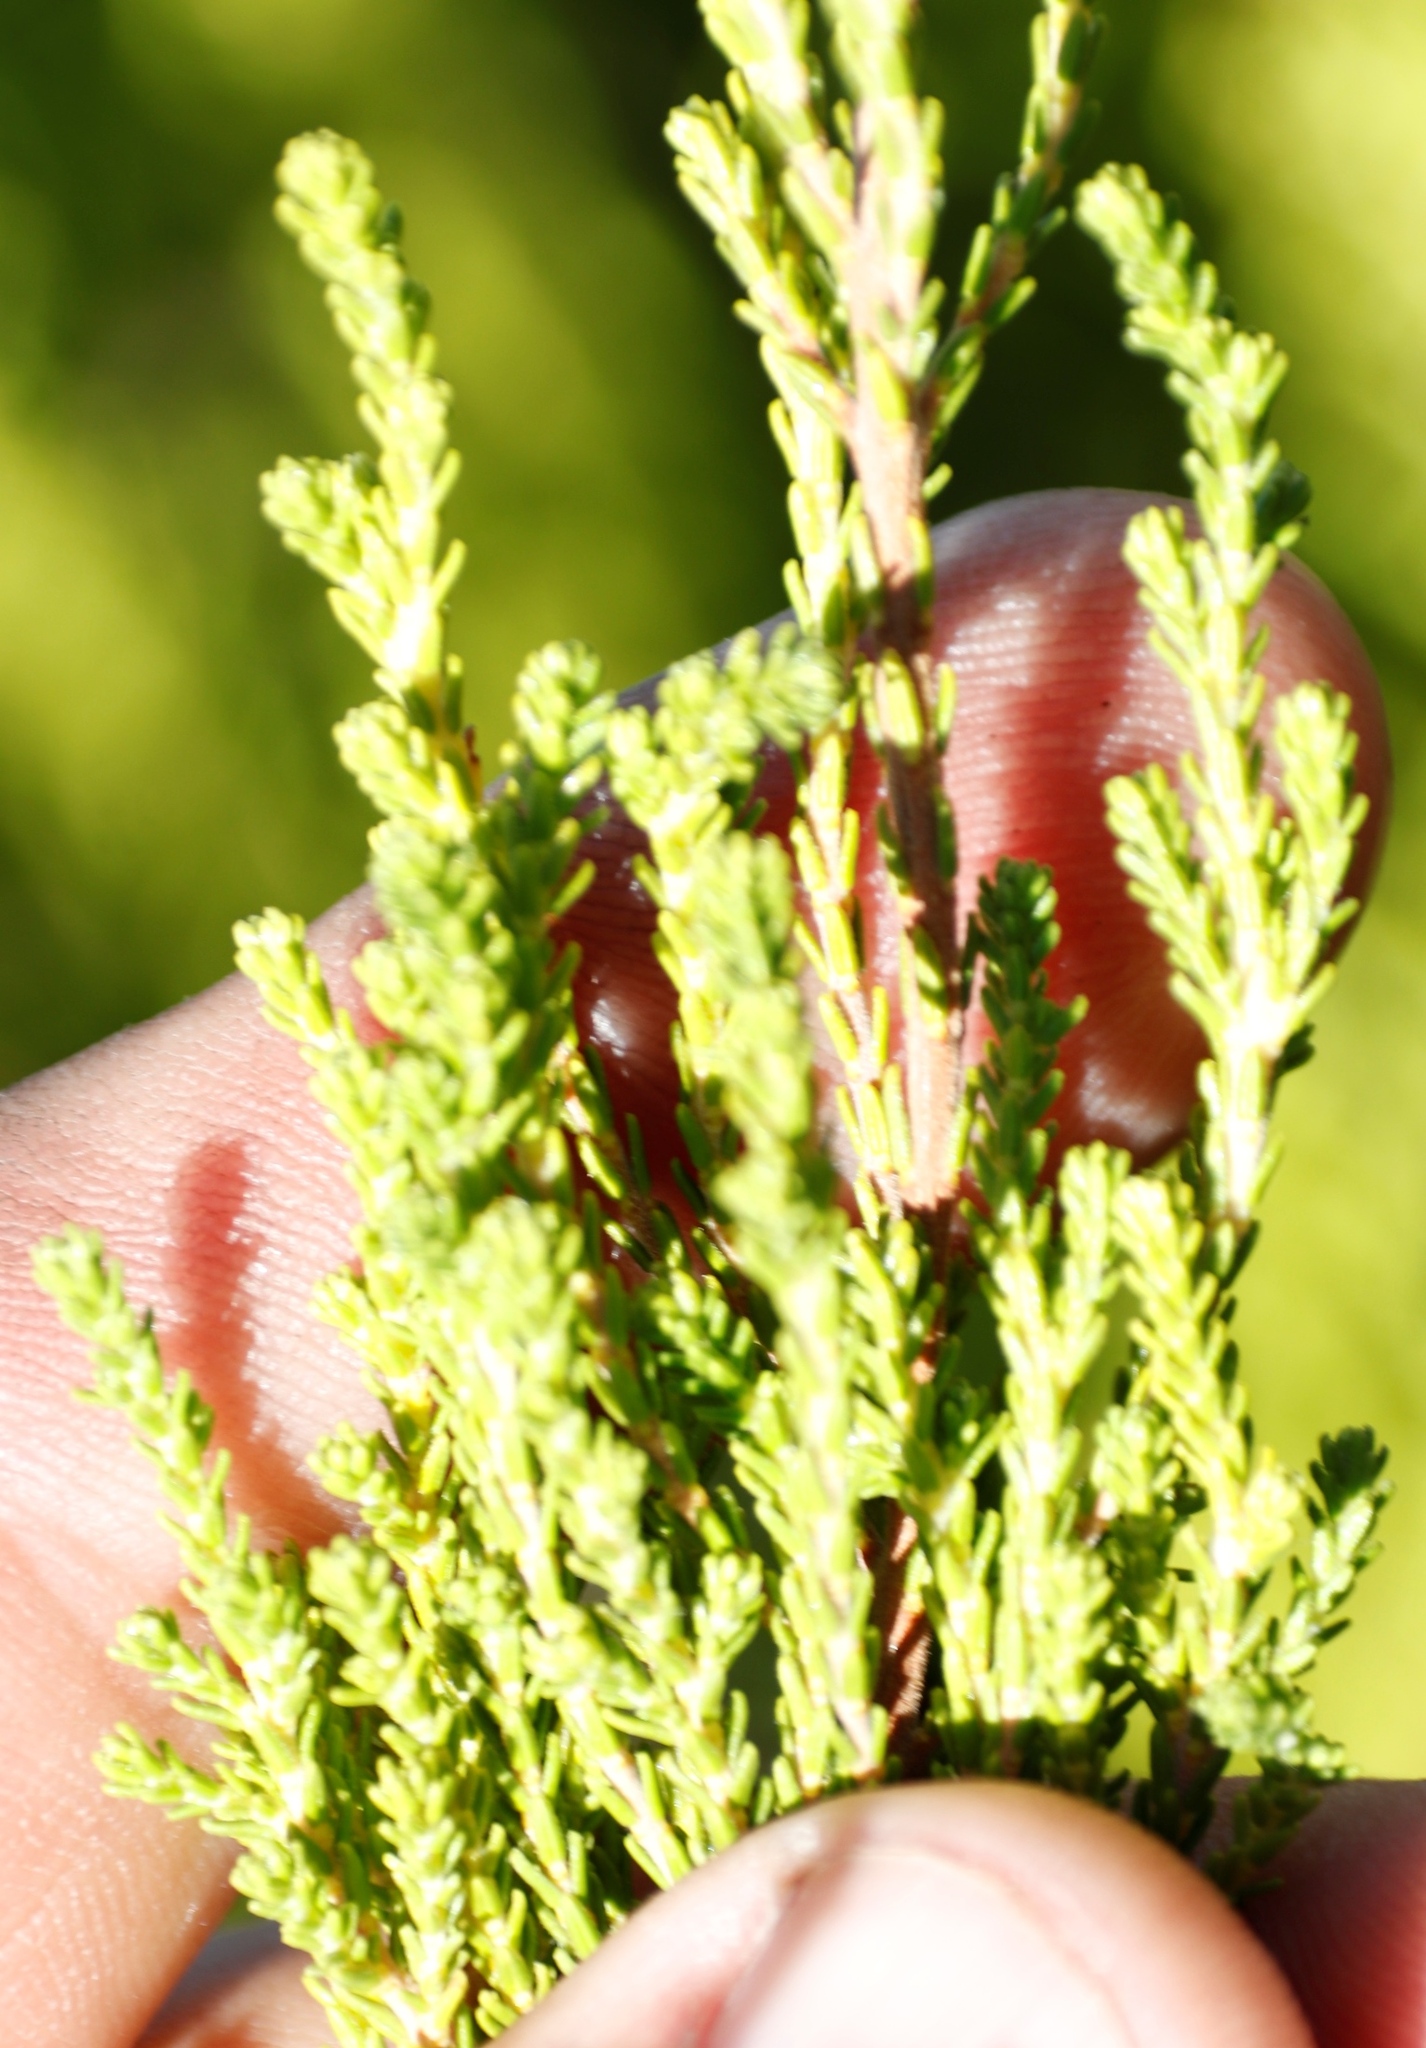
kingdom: Plantae
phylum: Tracheophyta
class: Magnoliopsida
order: Ericales
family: Ericaceae
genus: Erica
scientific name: Erica tristis
